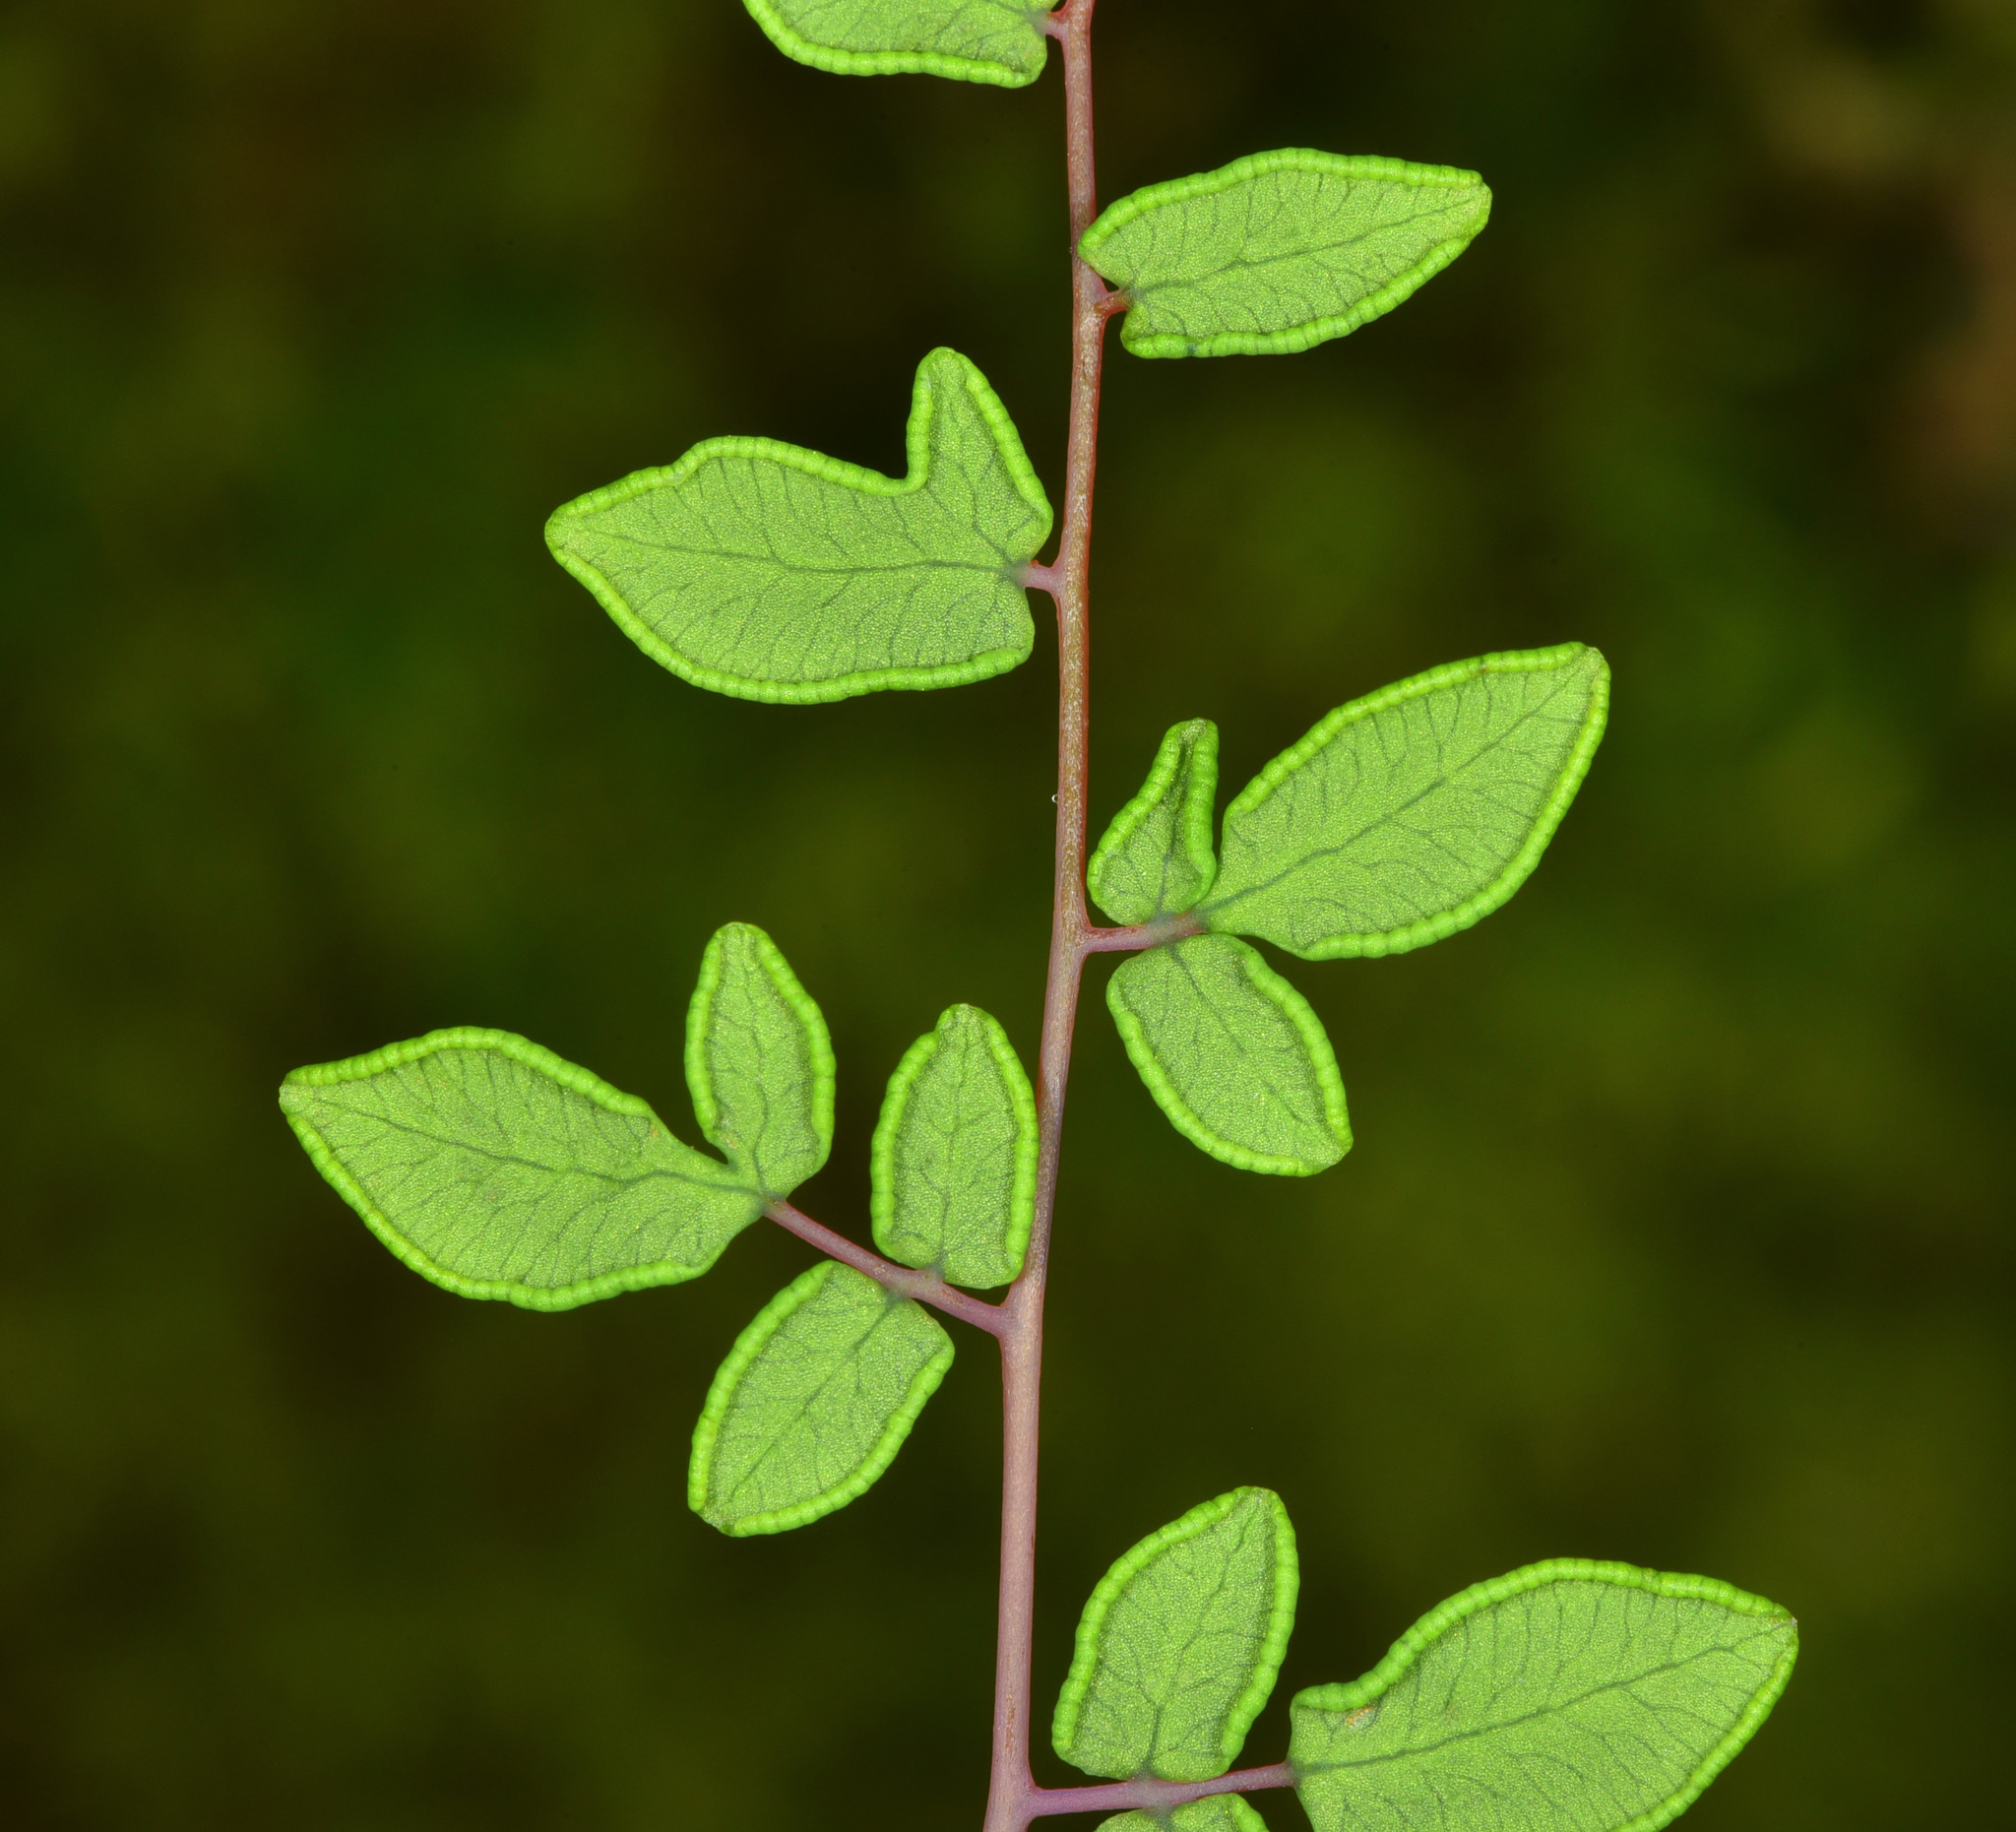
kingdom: Plantae
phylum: Tracheophyta
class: Polypodiopsida
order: Polypodiales
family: Pteridaceae
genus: Pellaea
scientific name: Pellaea andromedifolia
